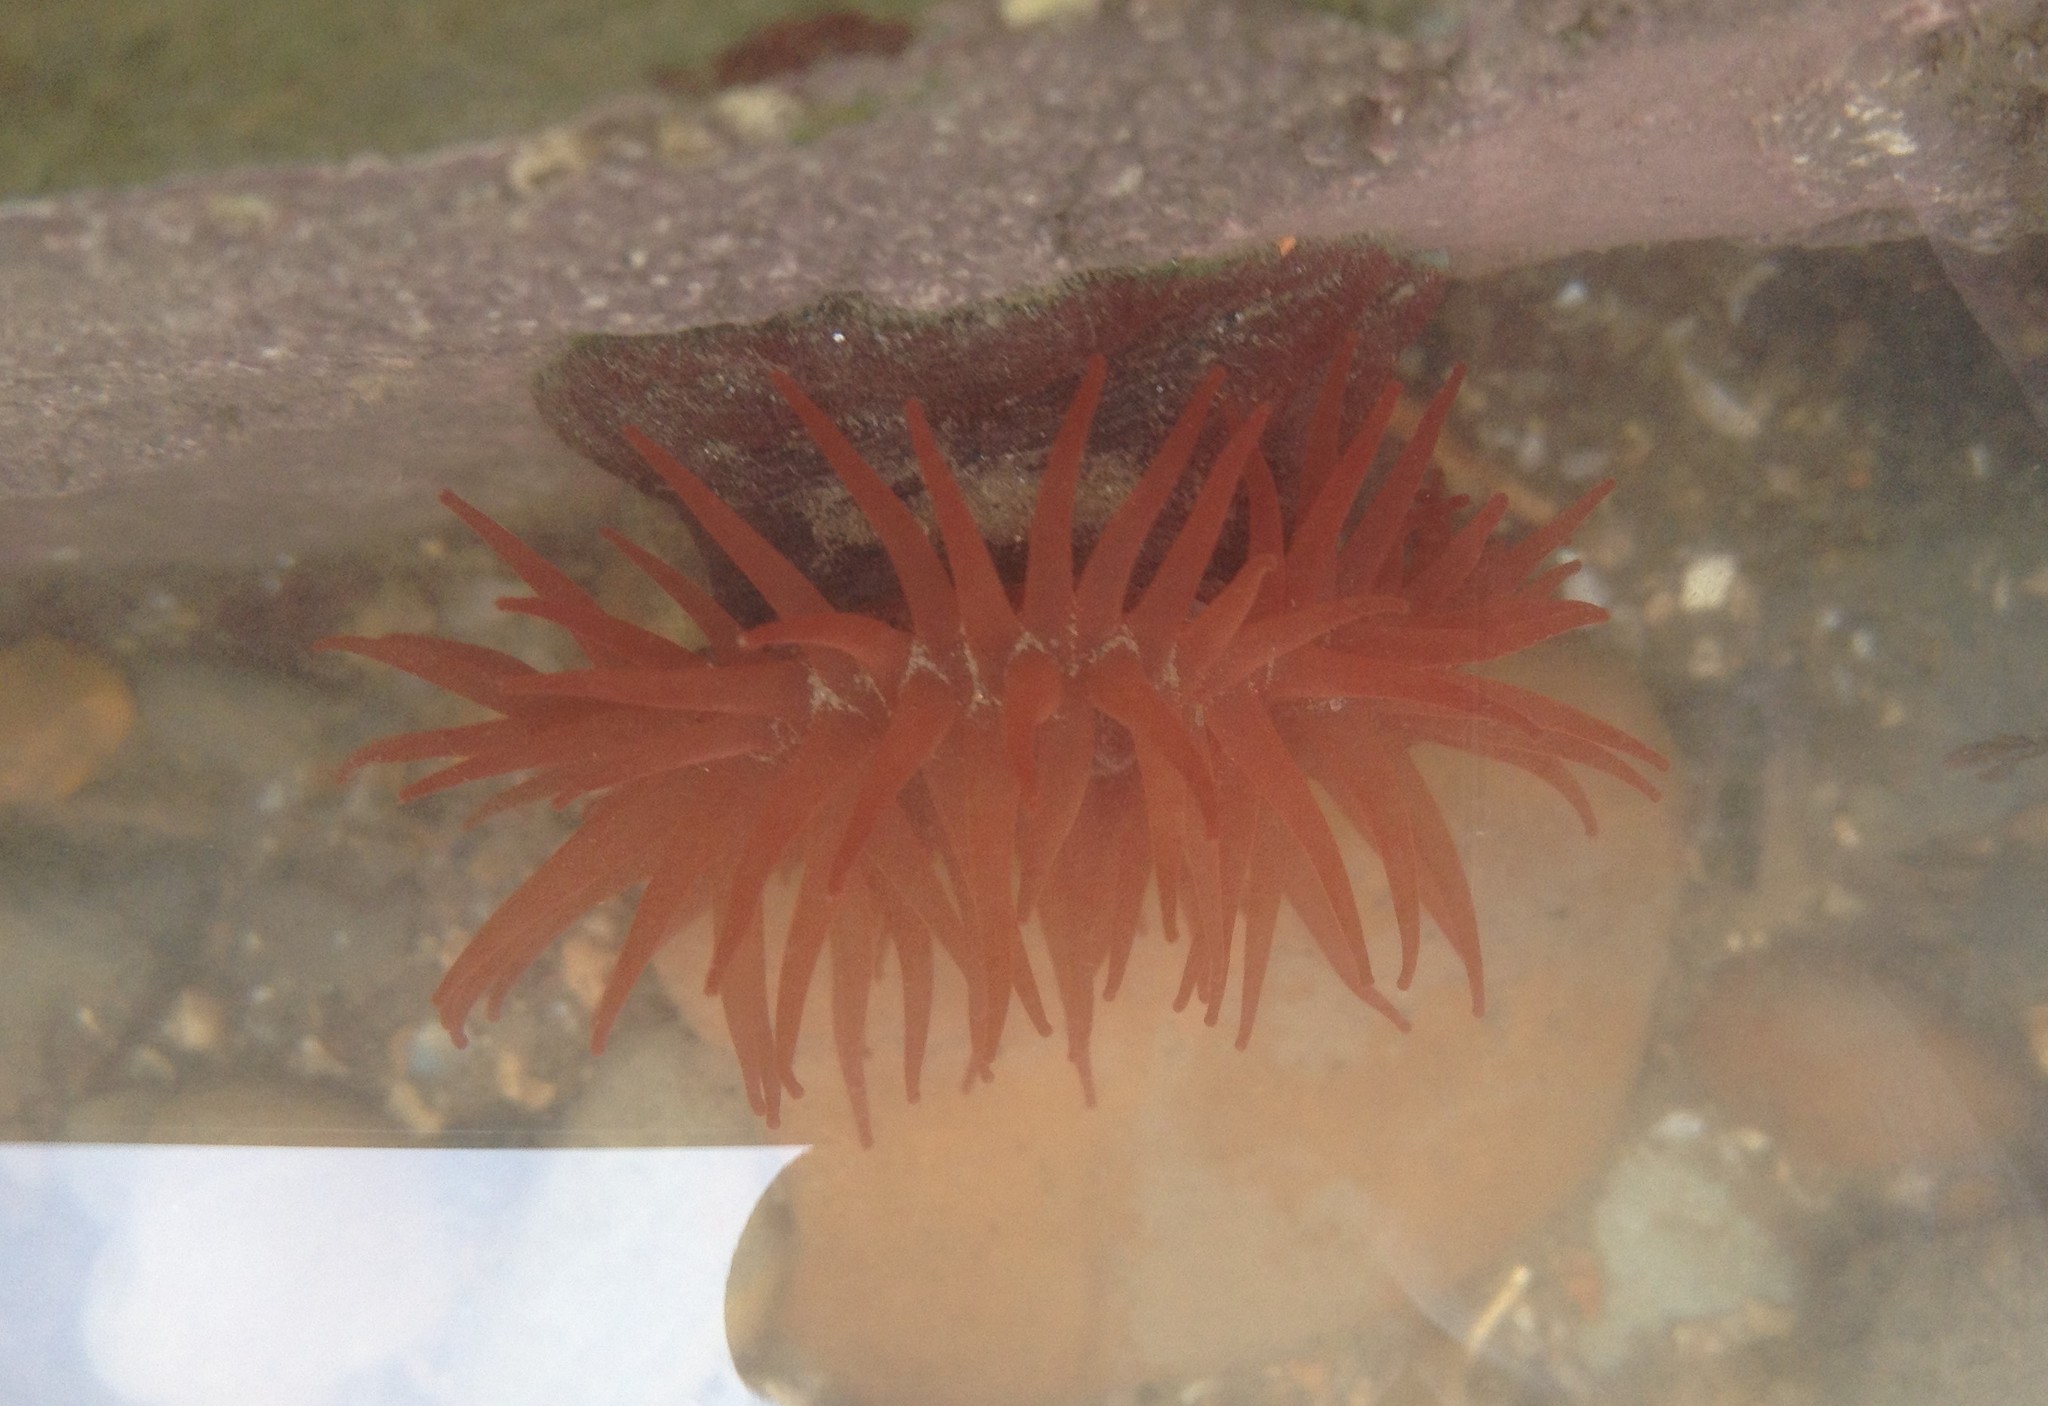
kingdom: Animalia
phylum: Cnidaria
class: Anthozoa
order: Actiniaria
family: Actiniidae
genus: Actinia
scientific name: Actinia equina
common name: Beadlet anemone
